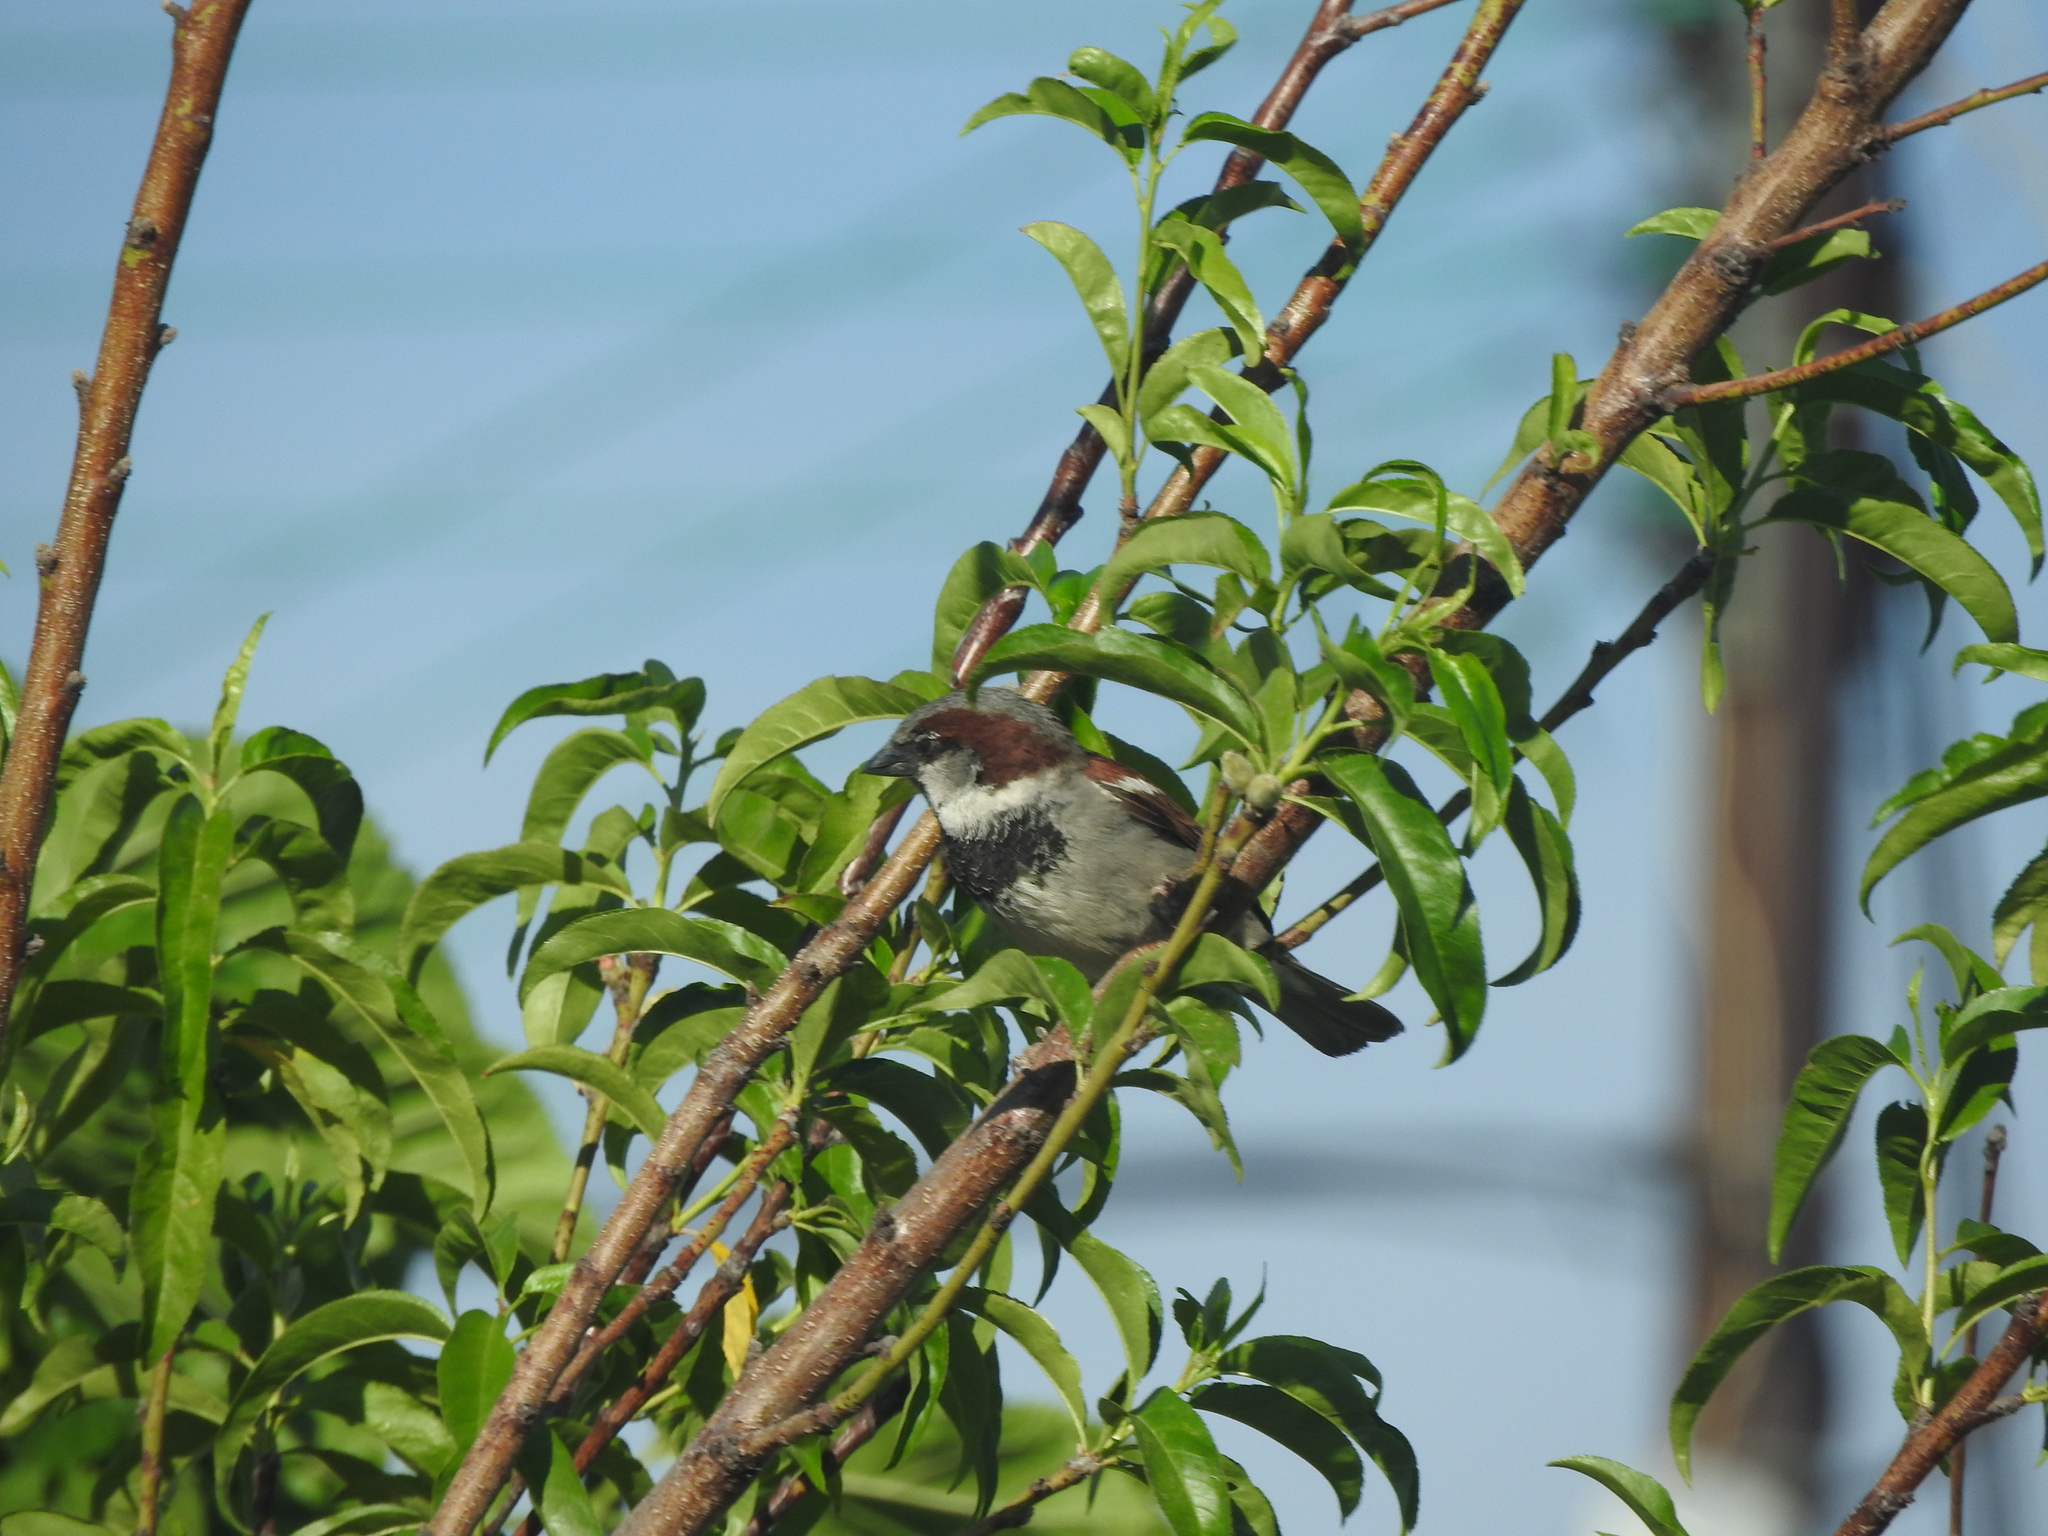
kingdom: Animalia
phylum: Chordata
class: Aves
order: Passeriformes
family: Passeridae
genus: Passer
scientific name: Passer domesticus
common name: House sparrow
